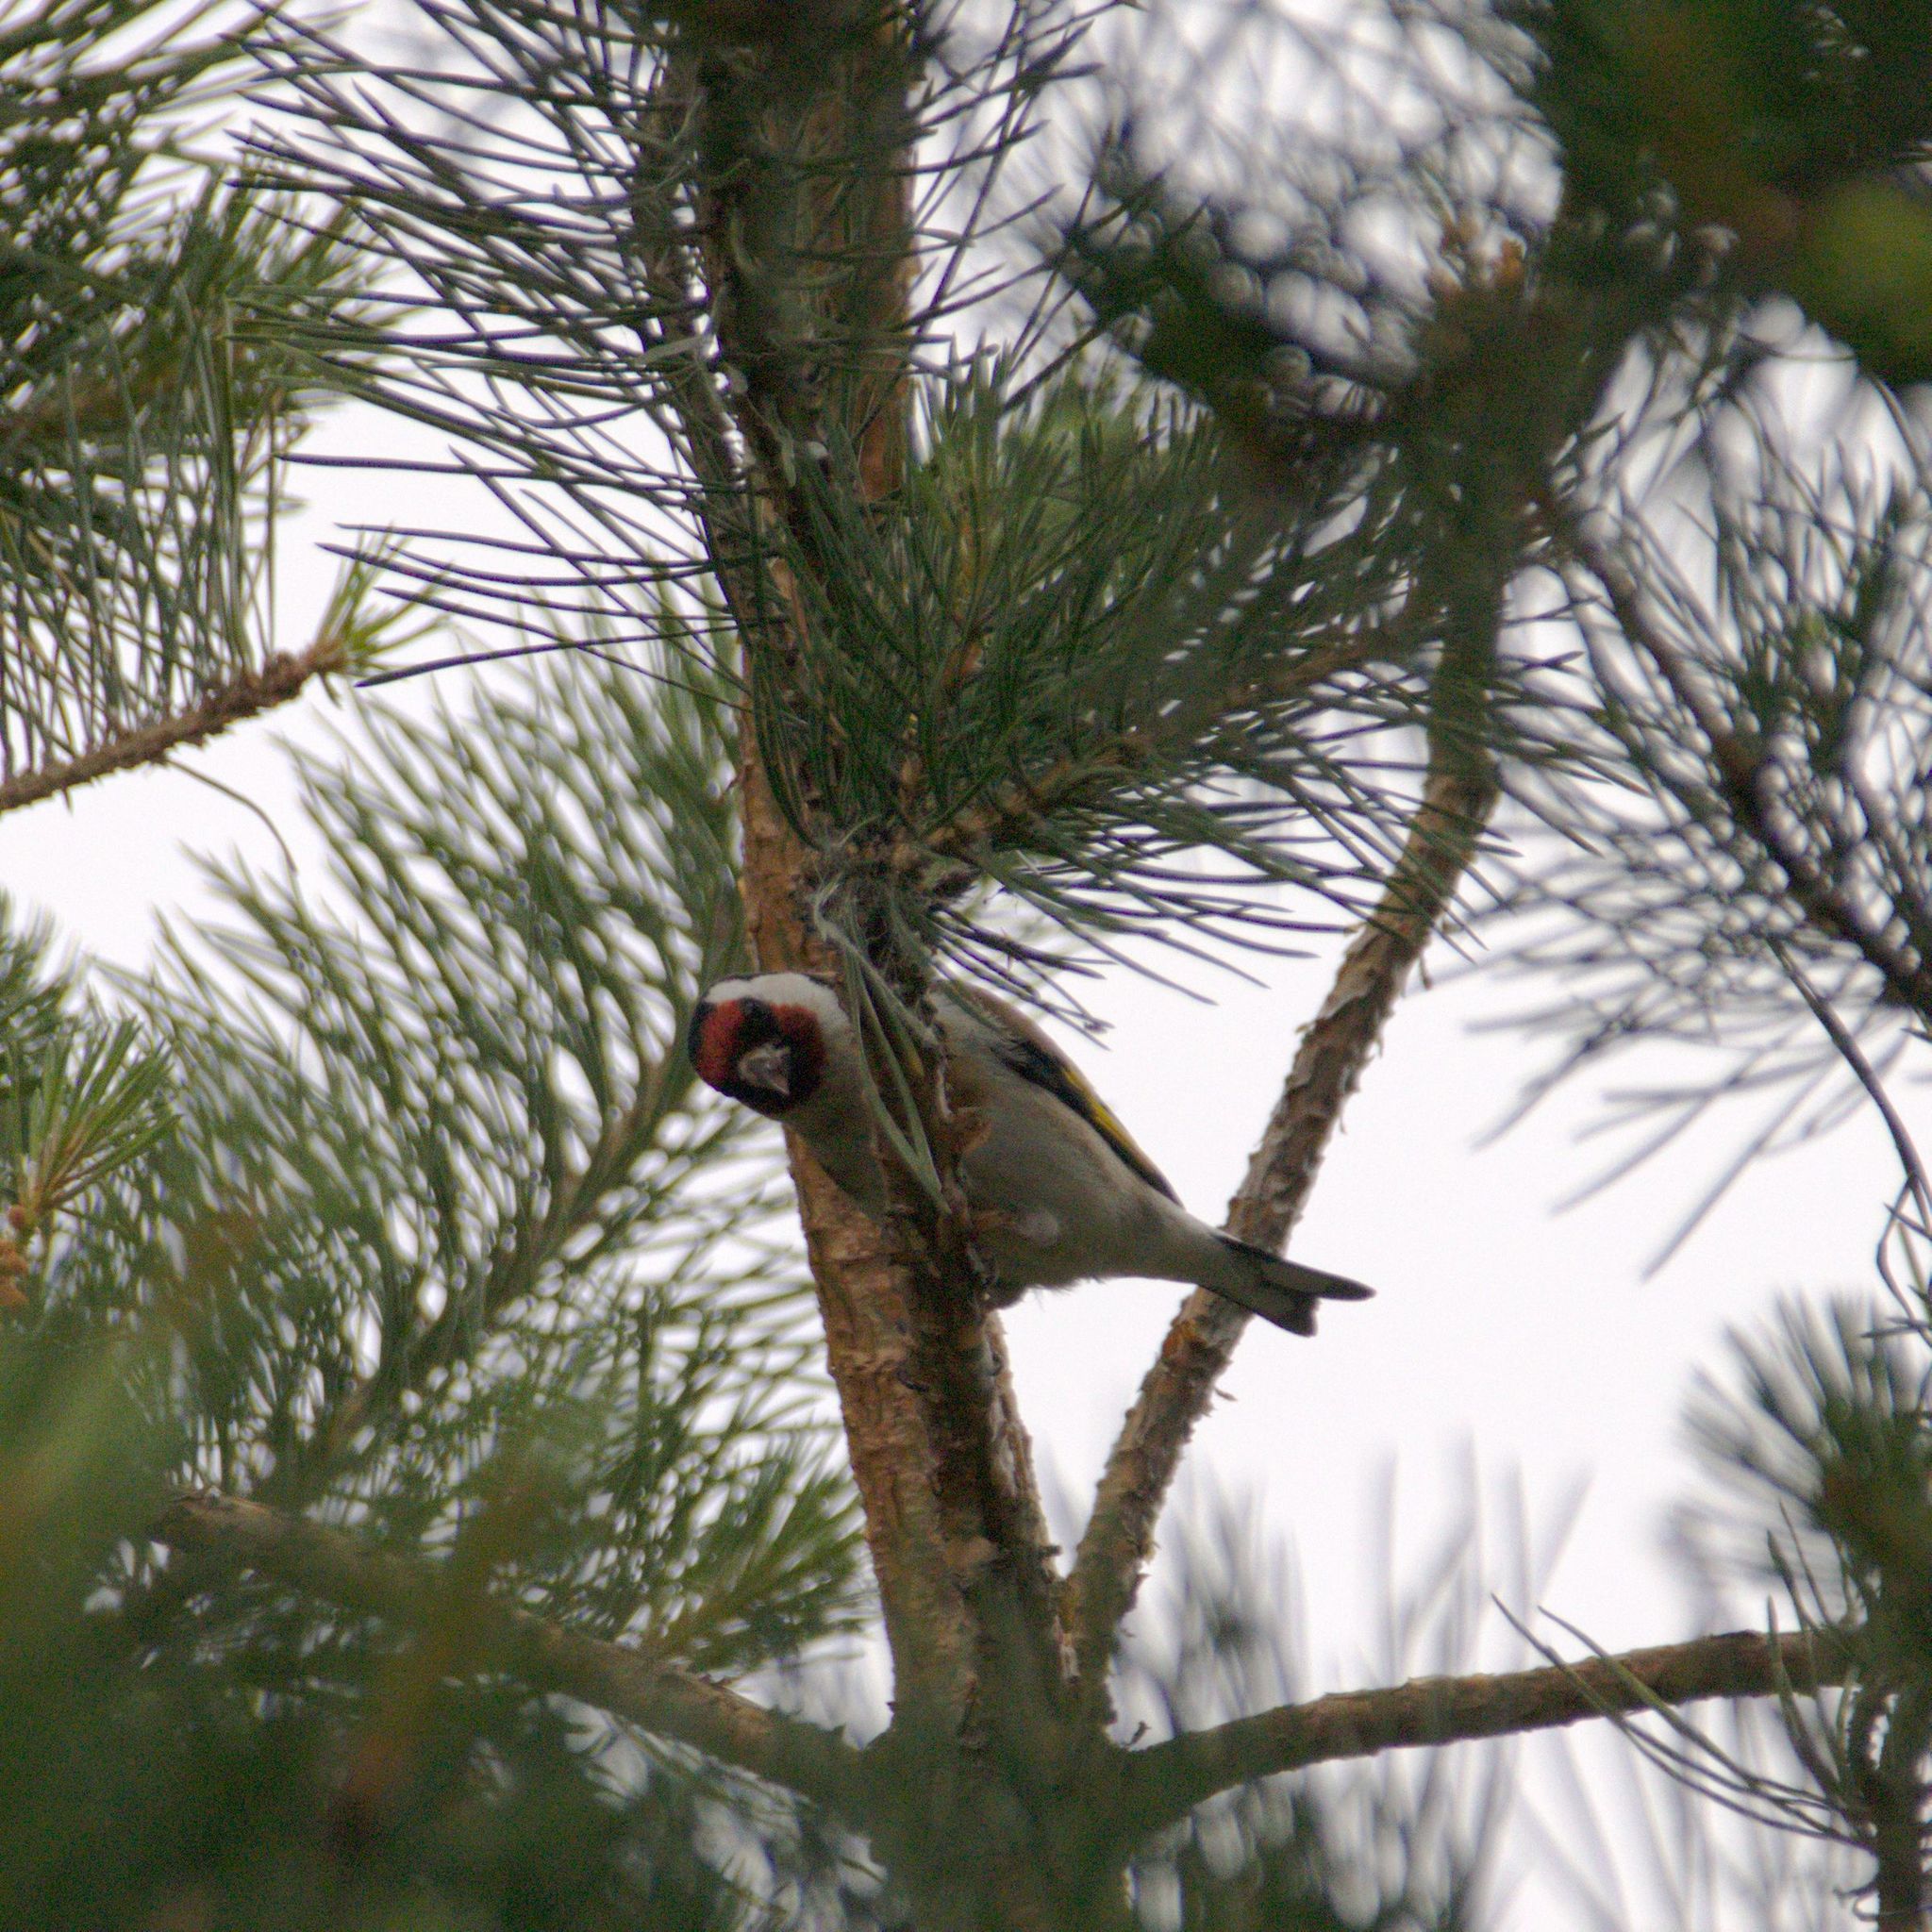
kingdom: Animalia
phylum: Chordata
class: Aves
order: Passeriformes
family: Fringillidae
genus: Carduelis
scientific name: Carduelis carduelis
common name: European goldfinch
